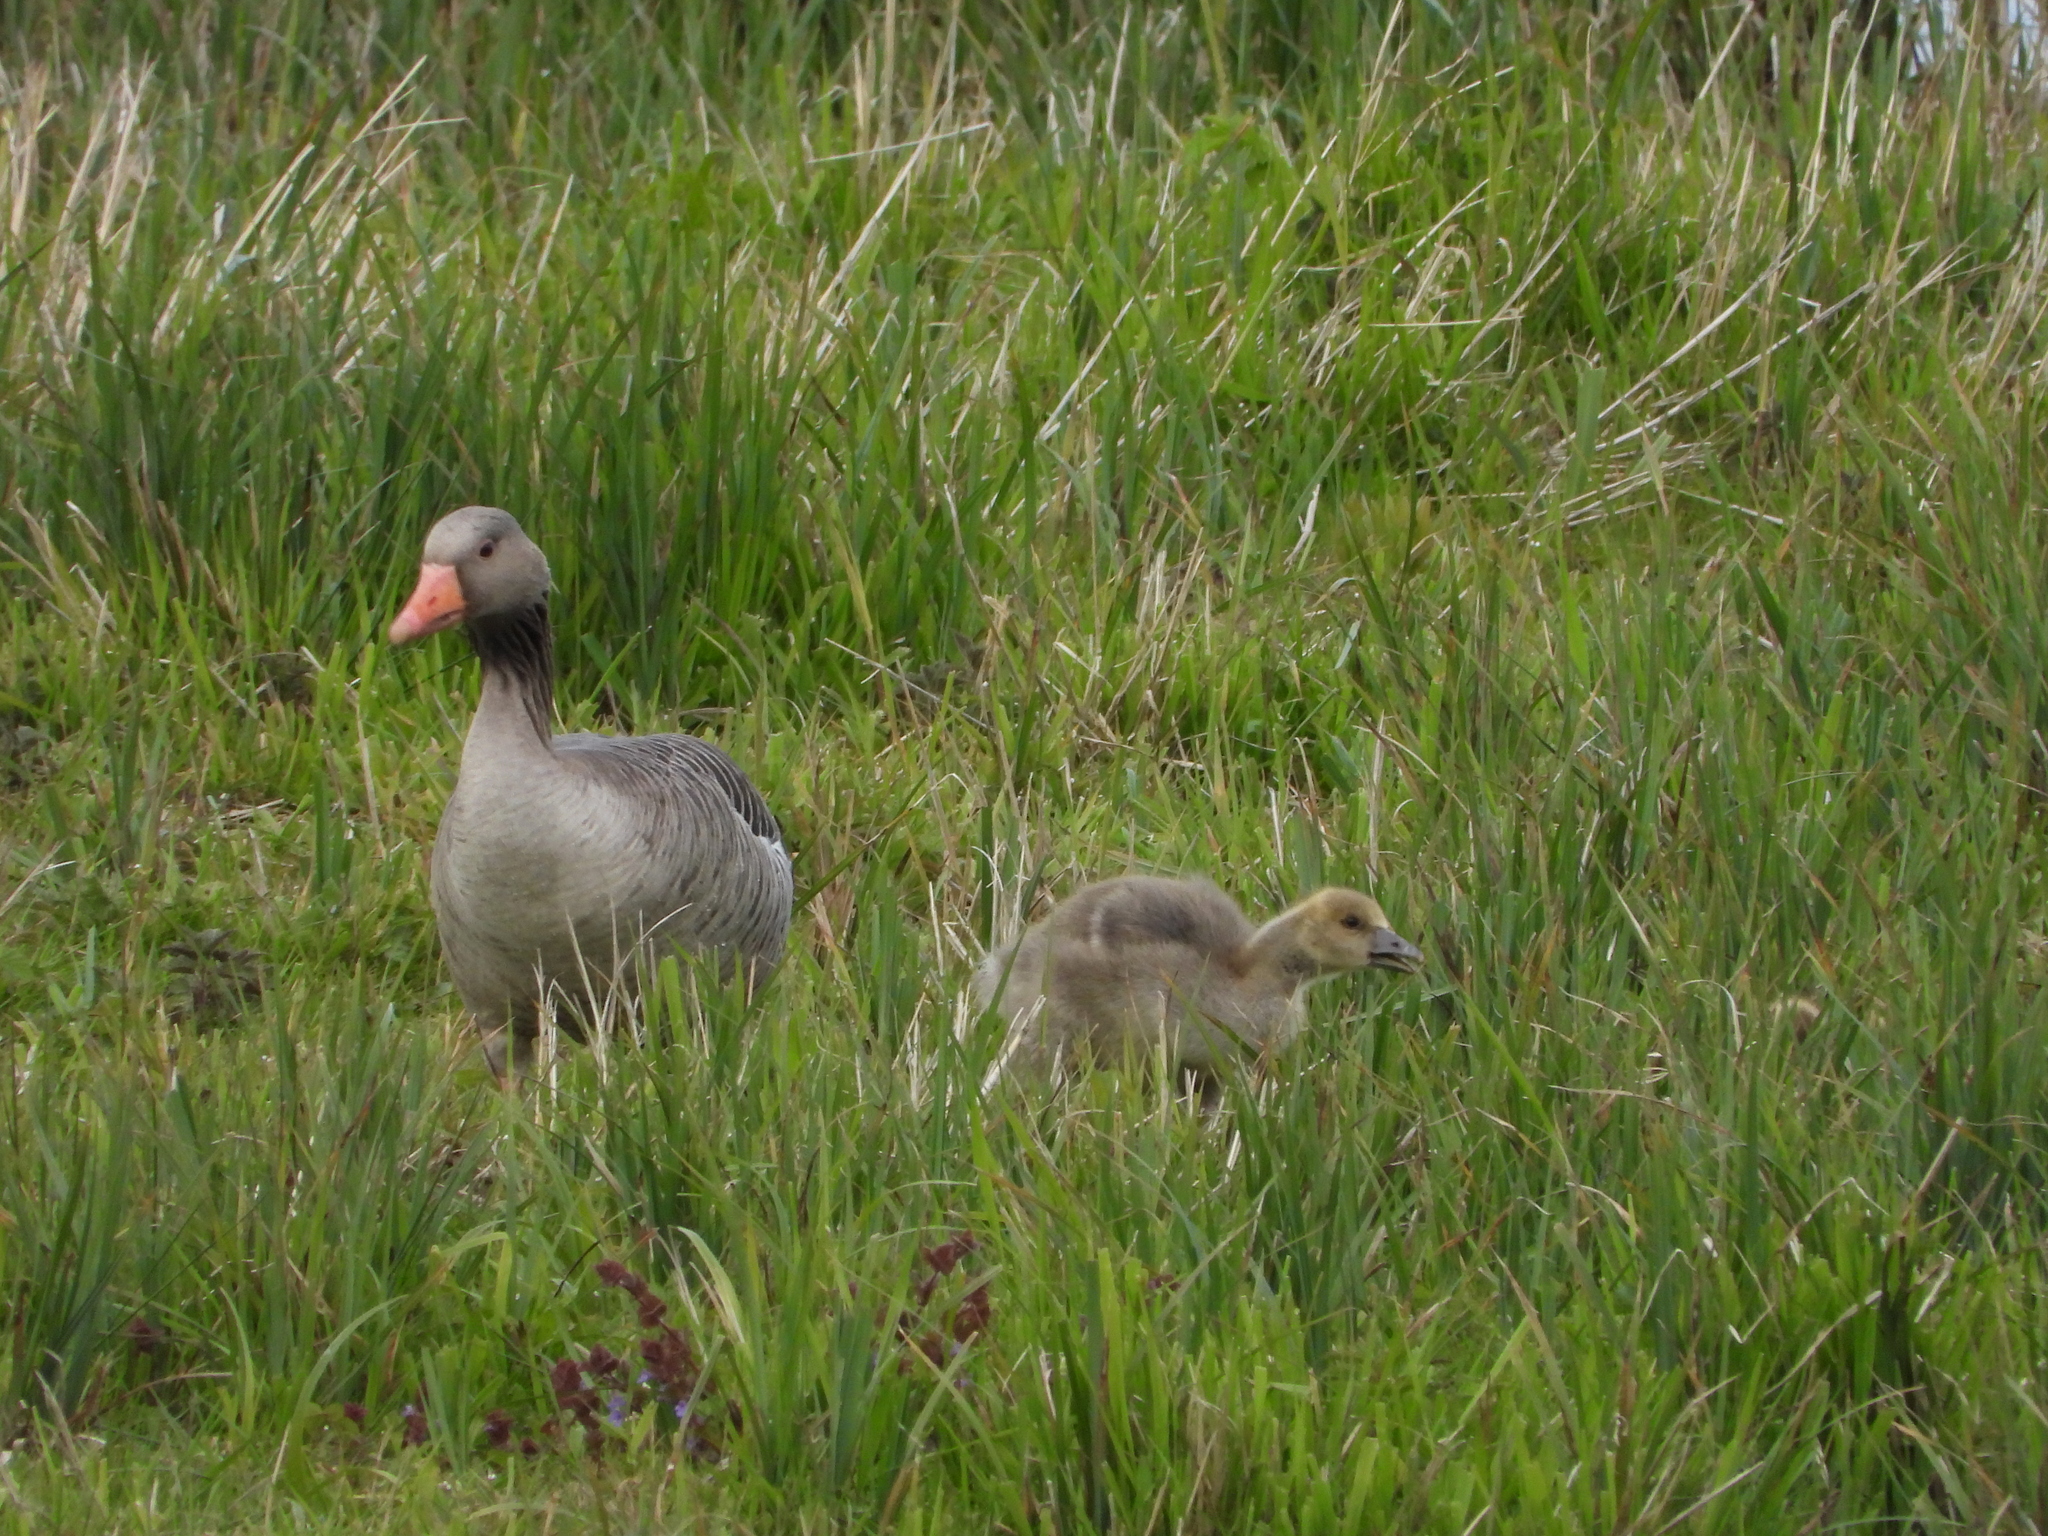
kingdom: Animalia
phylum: Chordata
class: Aves
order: Anseriformes
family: Anatidae
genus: Anser
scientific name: Anser anser
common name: Greylag goose
